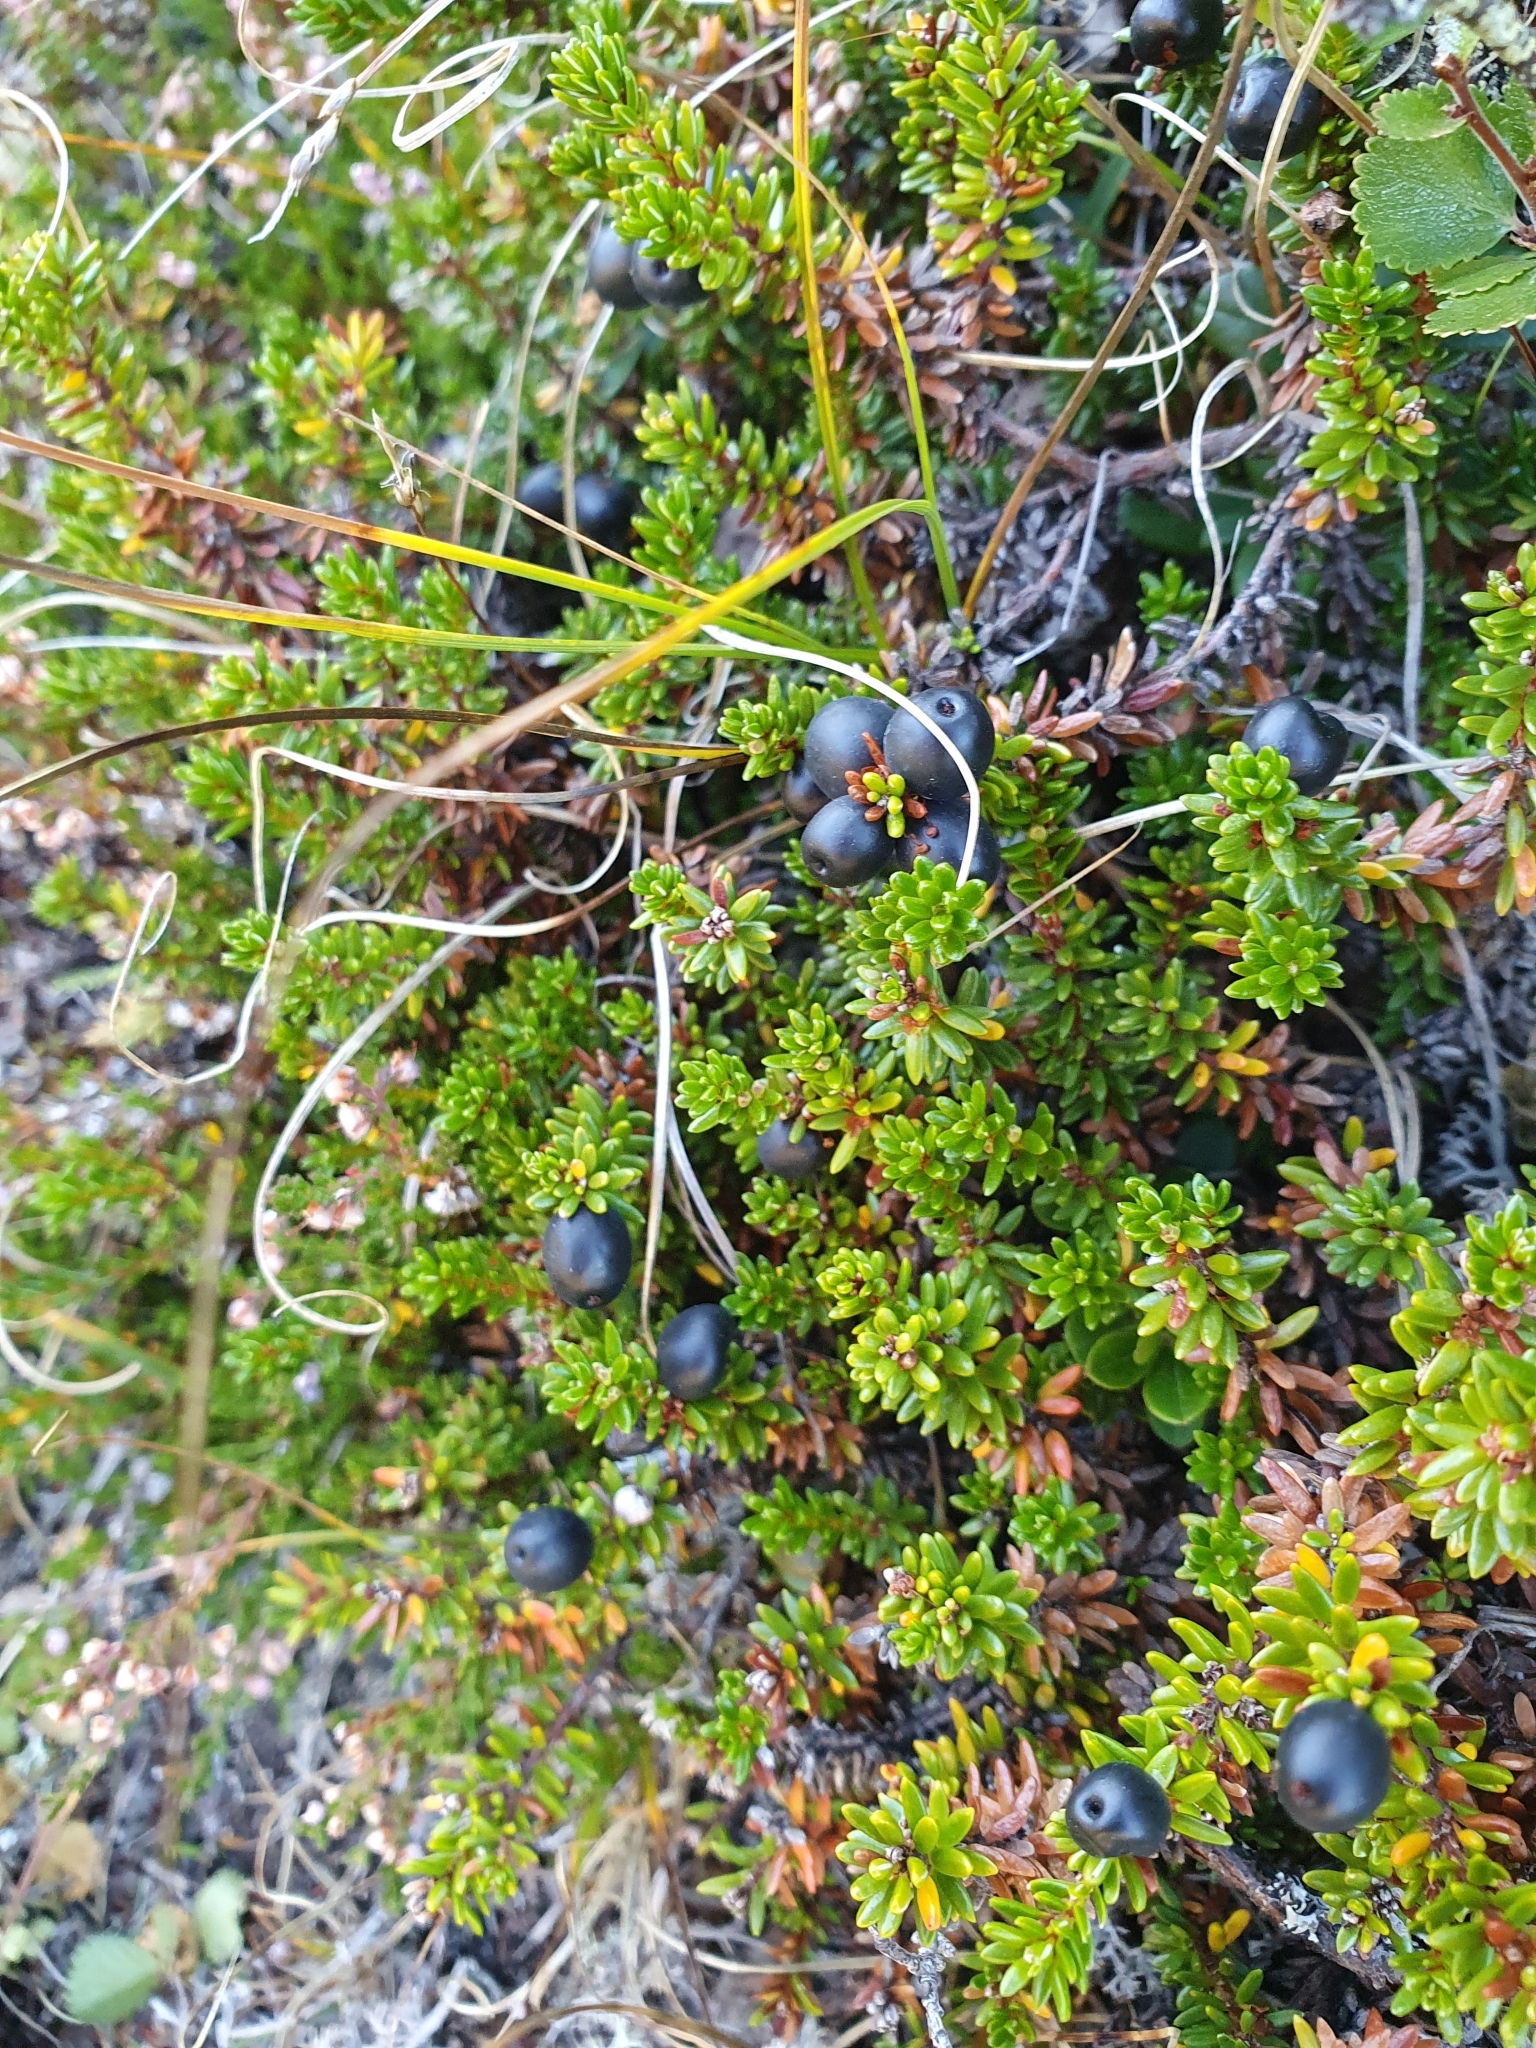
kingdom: Plantae
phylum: Tracheophyta
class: Magnoliopsida
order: Ericales
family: Ericaceae
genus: Empetrum
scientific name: Empetrum nigrum
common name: Black crowberry
